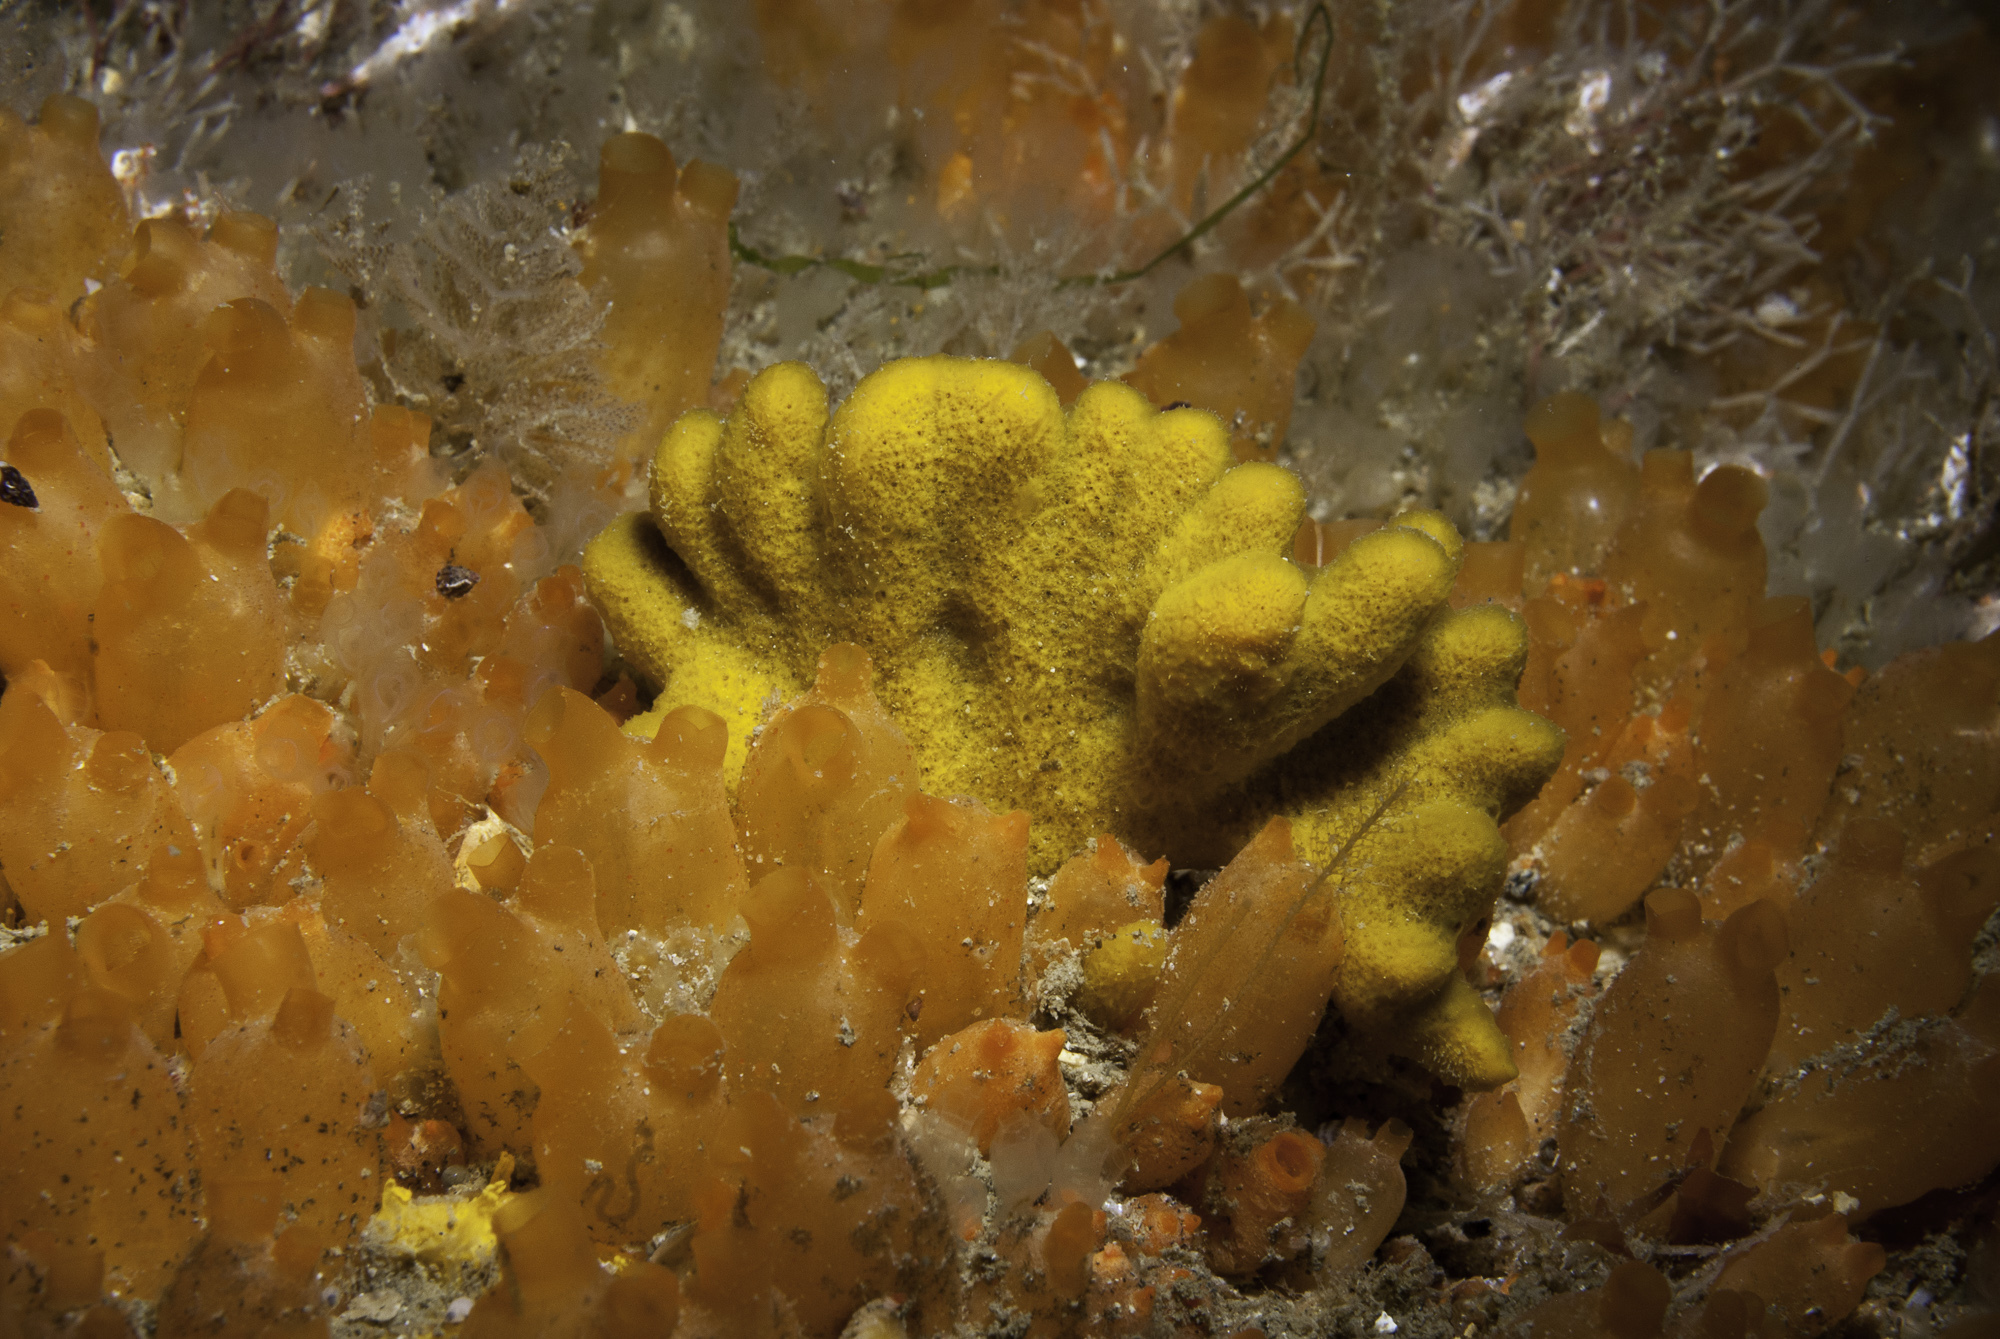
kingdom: Animalia
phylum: Porifera
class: Demospongiae
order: Axinellida
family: Raspailiidae
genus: Raspailia
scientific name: Raspailia agnata
